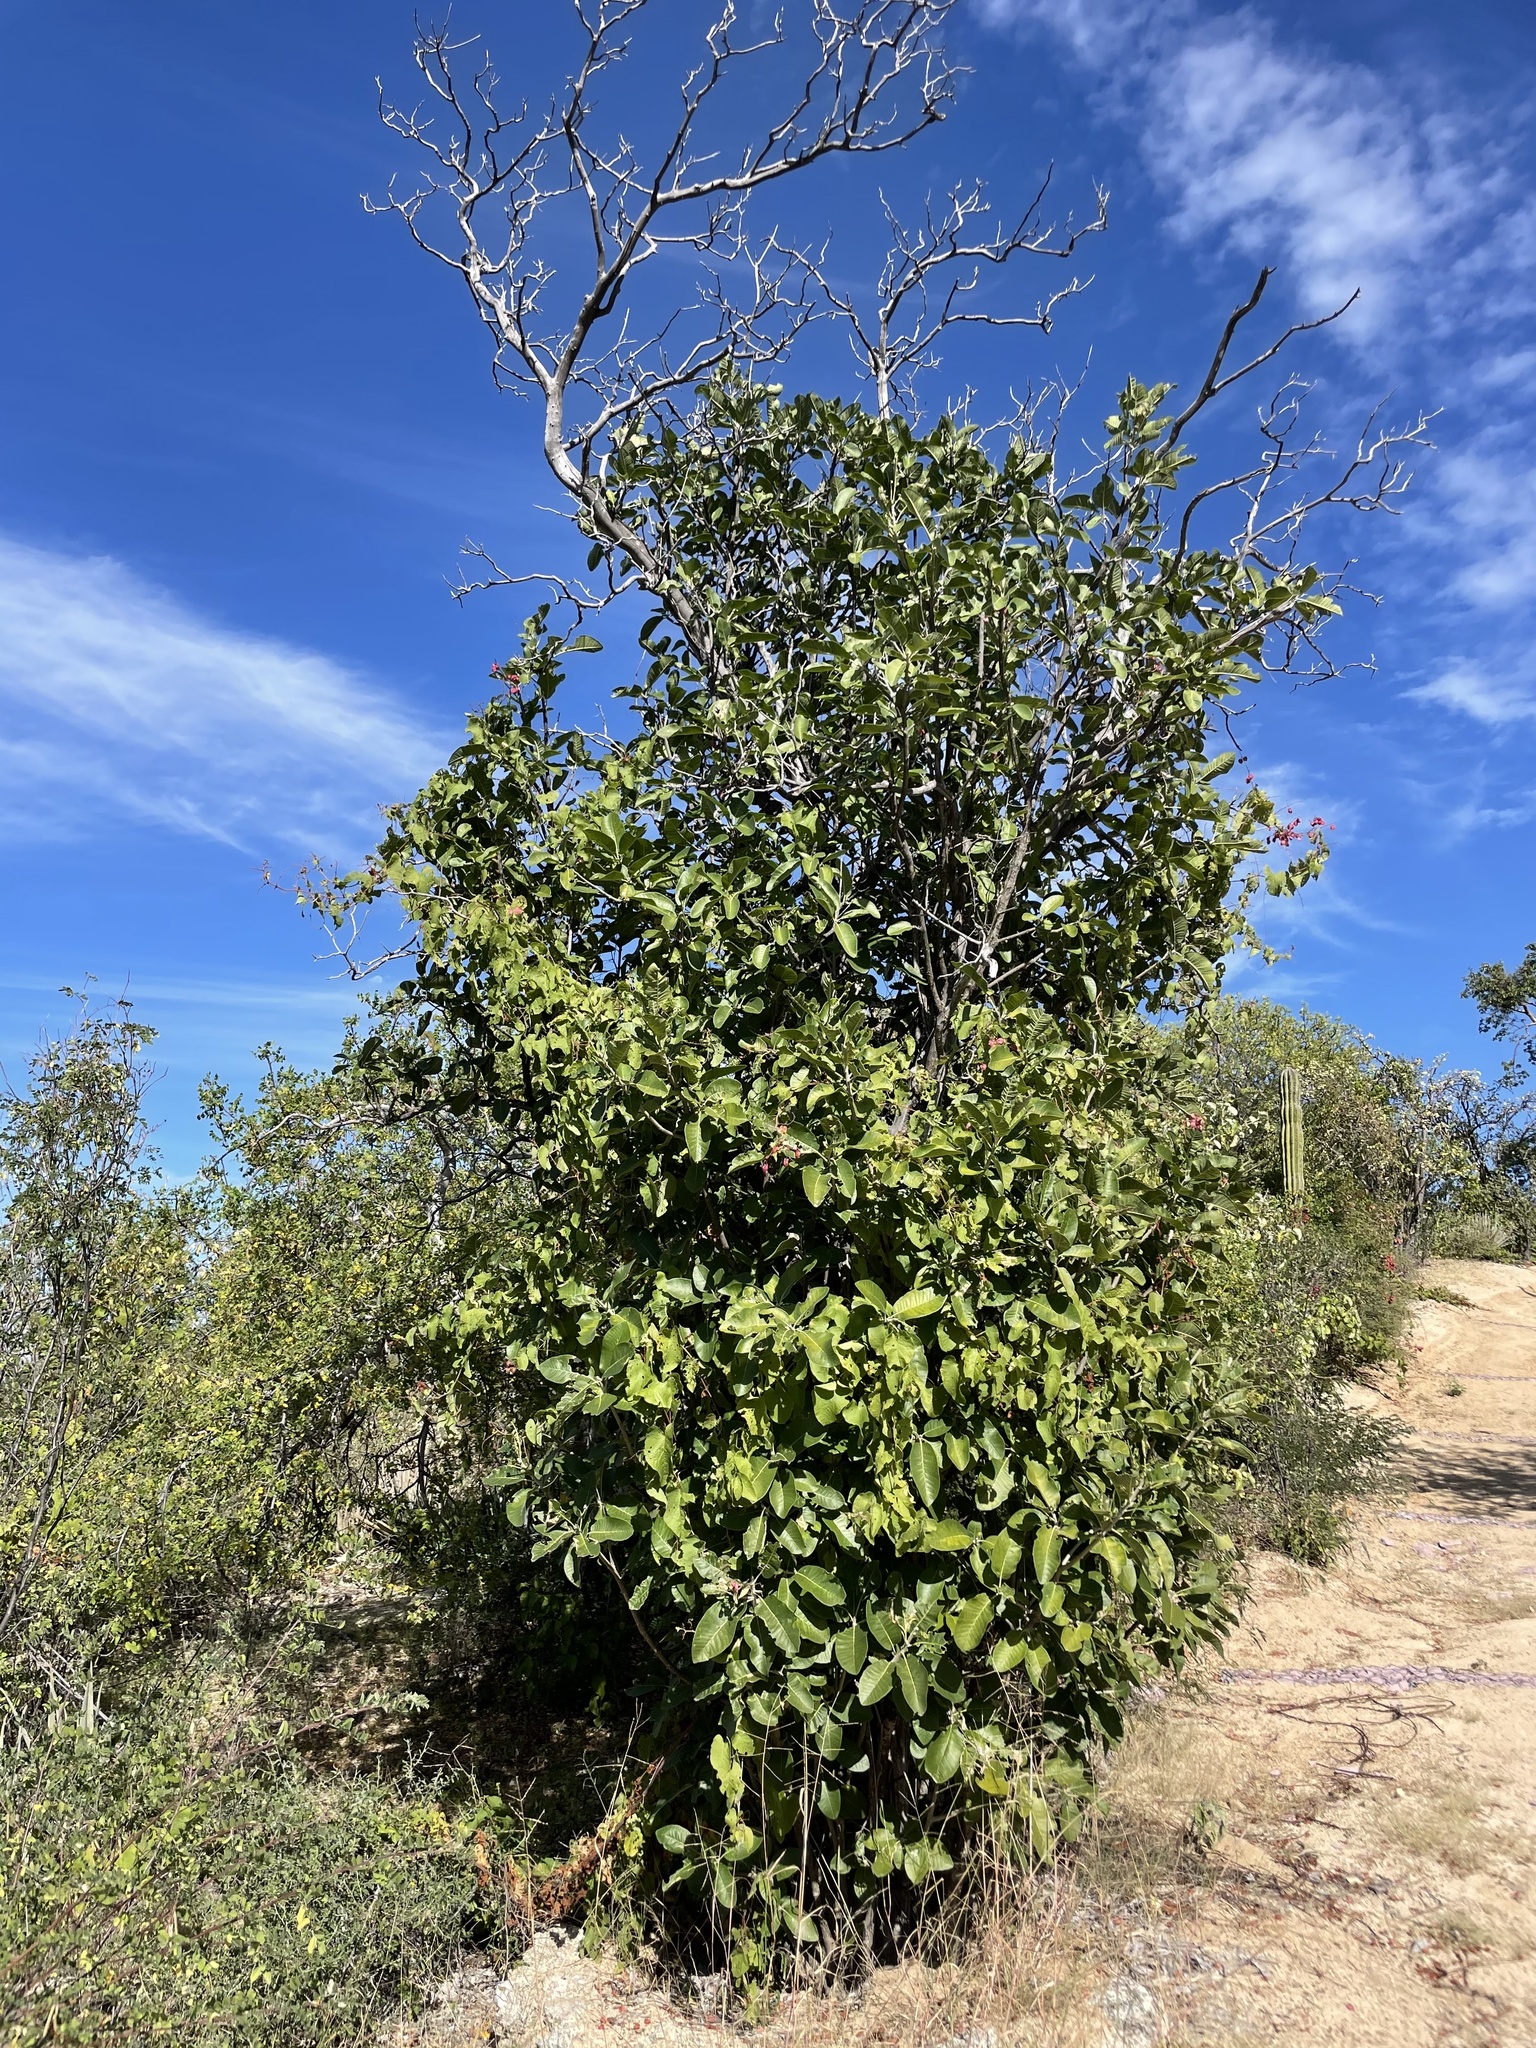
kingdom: Plantae
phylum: Tracheophyta
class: Magnoliopsida
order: Sapindales
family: Rutaceae
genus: Esenbeckia
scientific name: Esenbeckia flava
